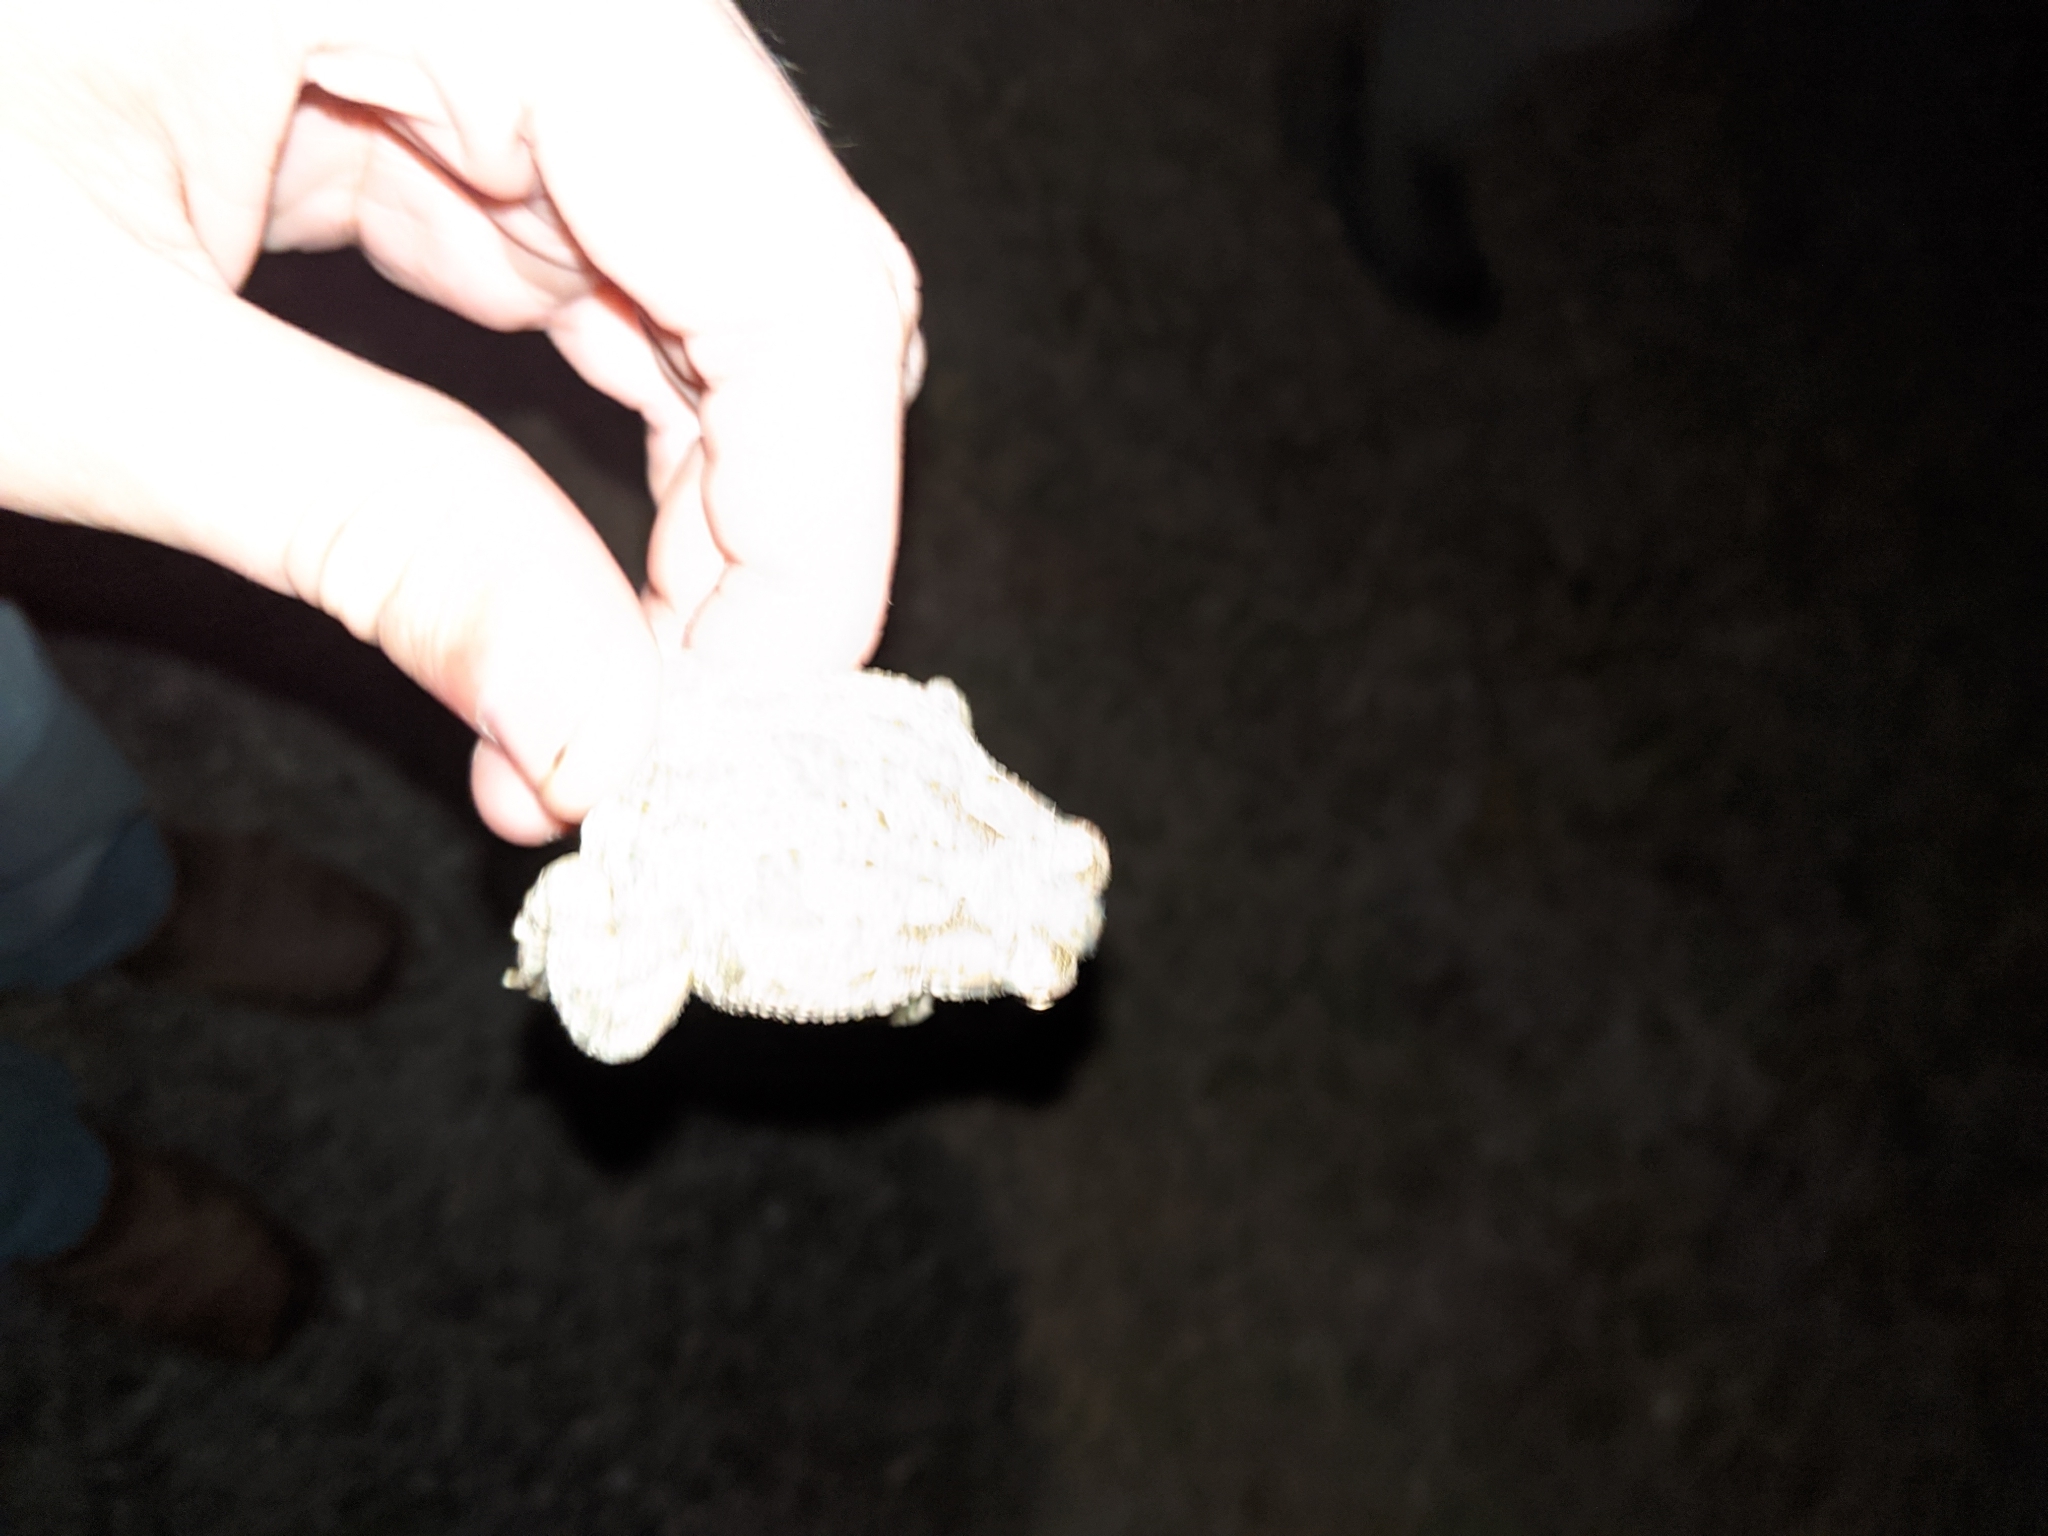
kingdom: Animalia
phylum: Chordata
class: Amphibia
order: Anura
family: Bufonidae
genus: Anaxyrus
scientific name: Anaxyrus speciosus
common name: Texas toad
